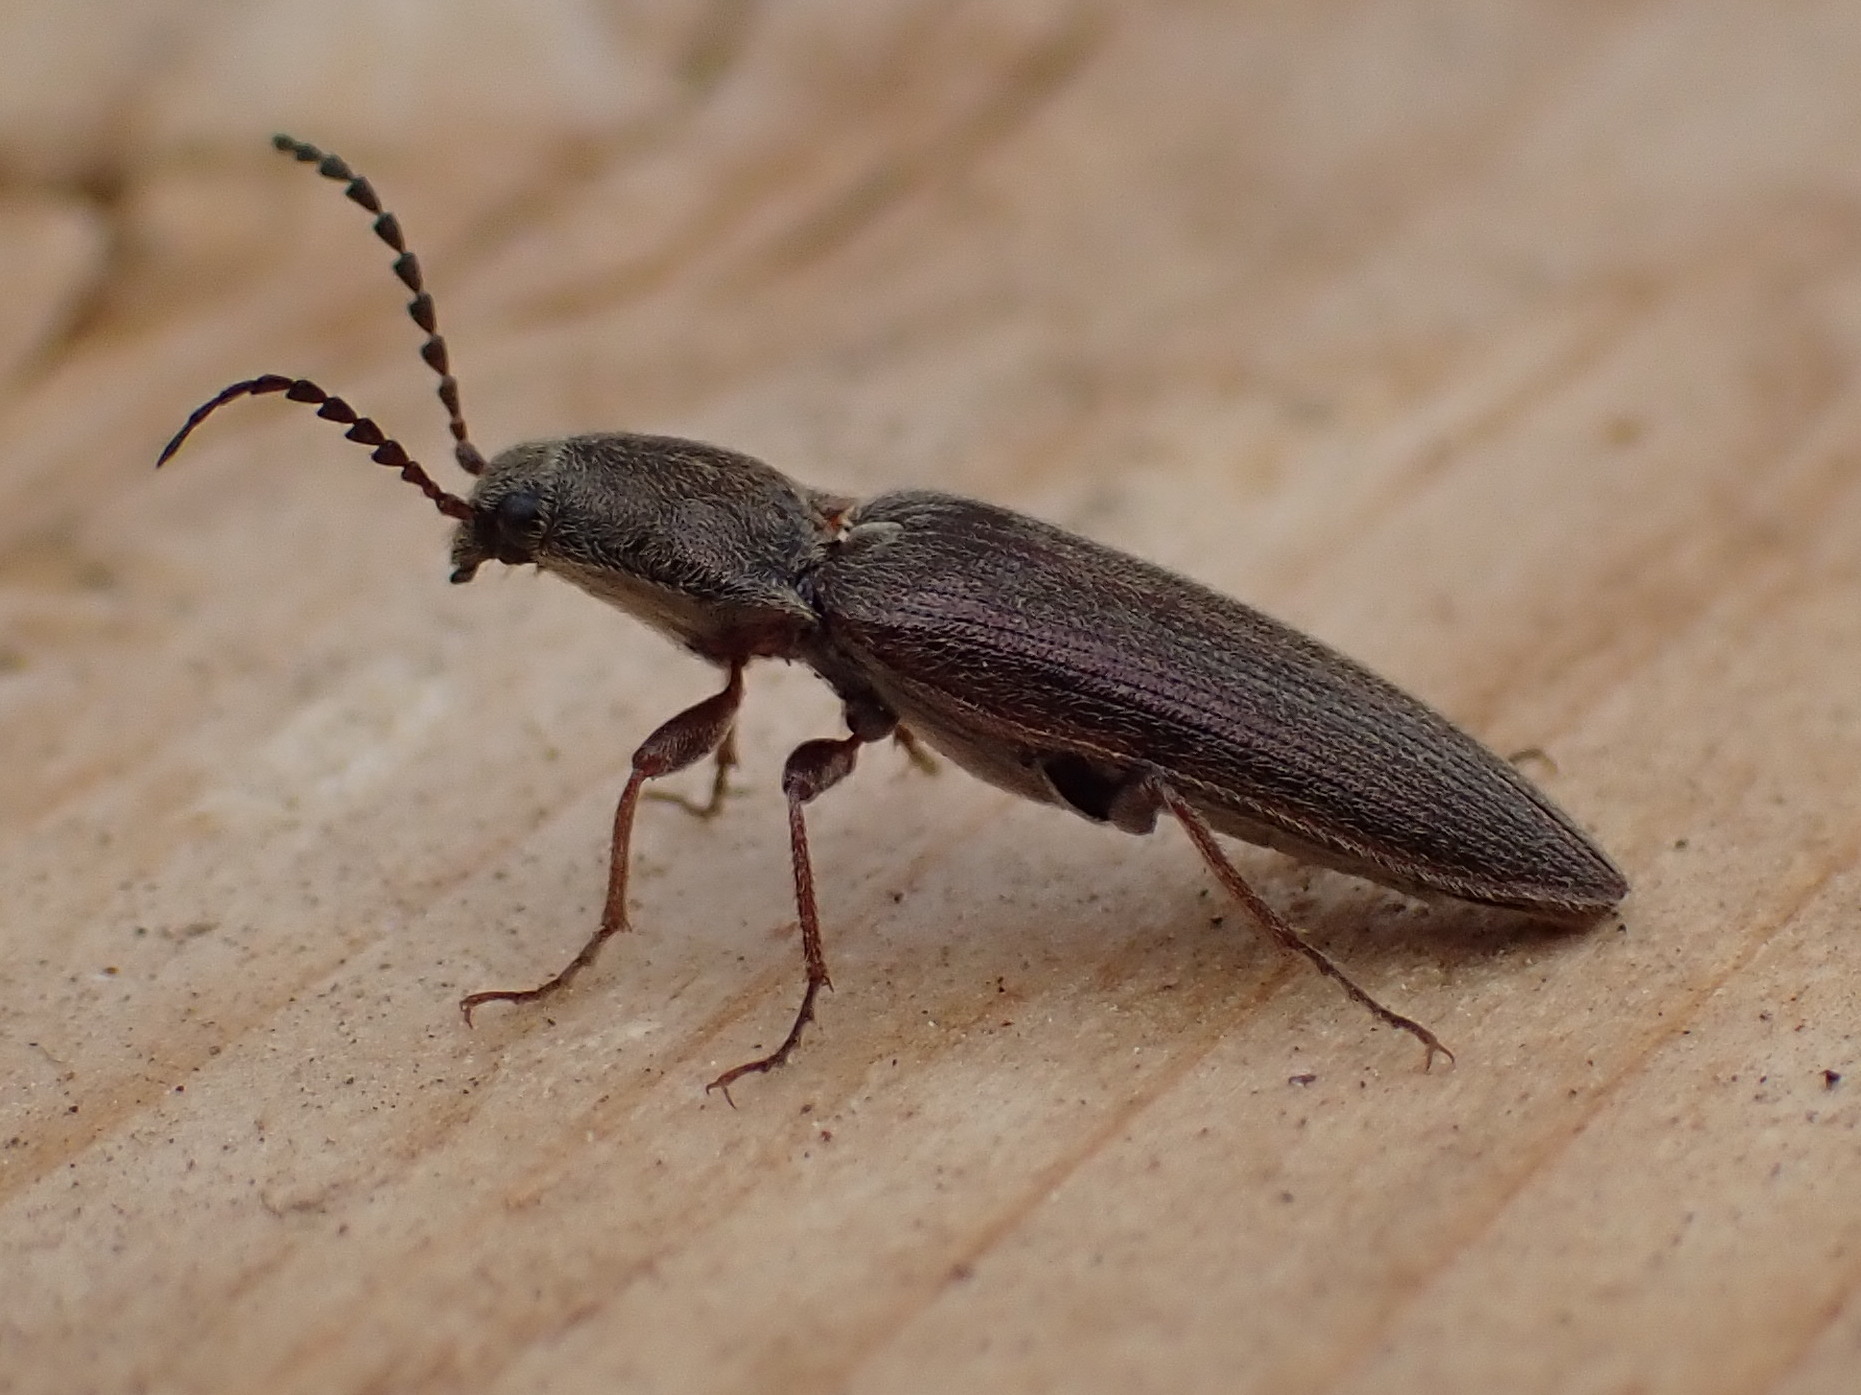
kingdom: Animalia
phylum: Arthropoda
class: Insecta
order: Coleoptera
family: Elateridae
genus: Sylvanelater
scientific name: Sylvanelater cylindriformis
